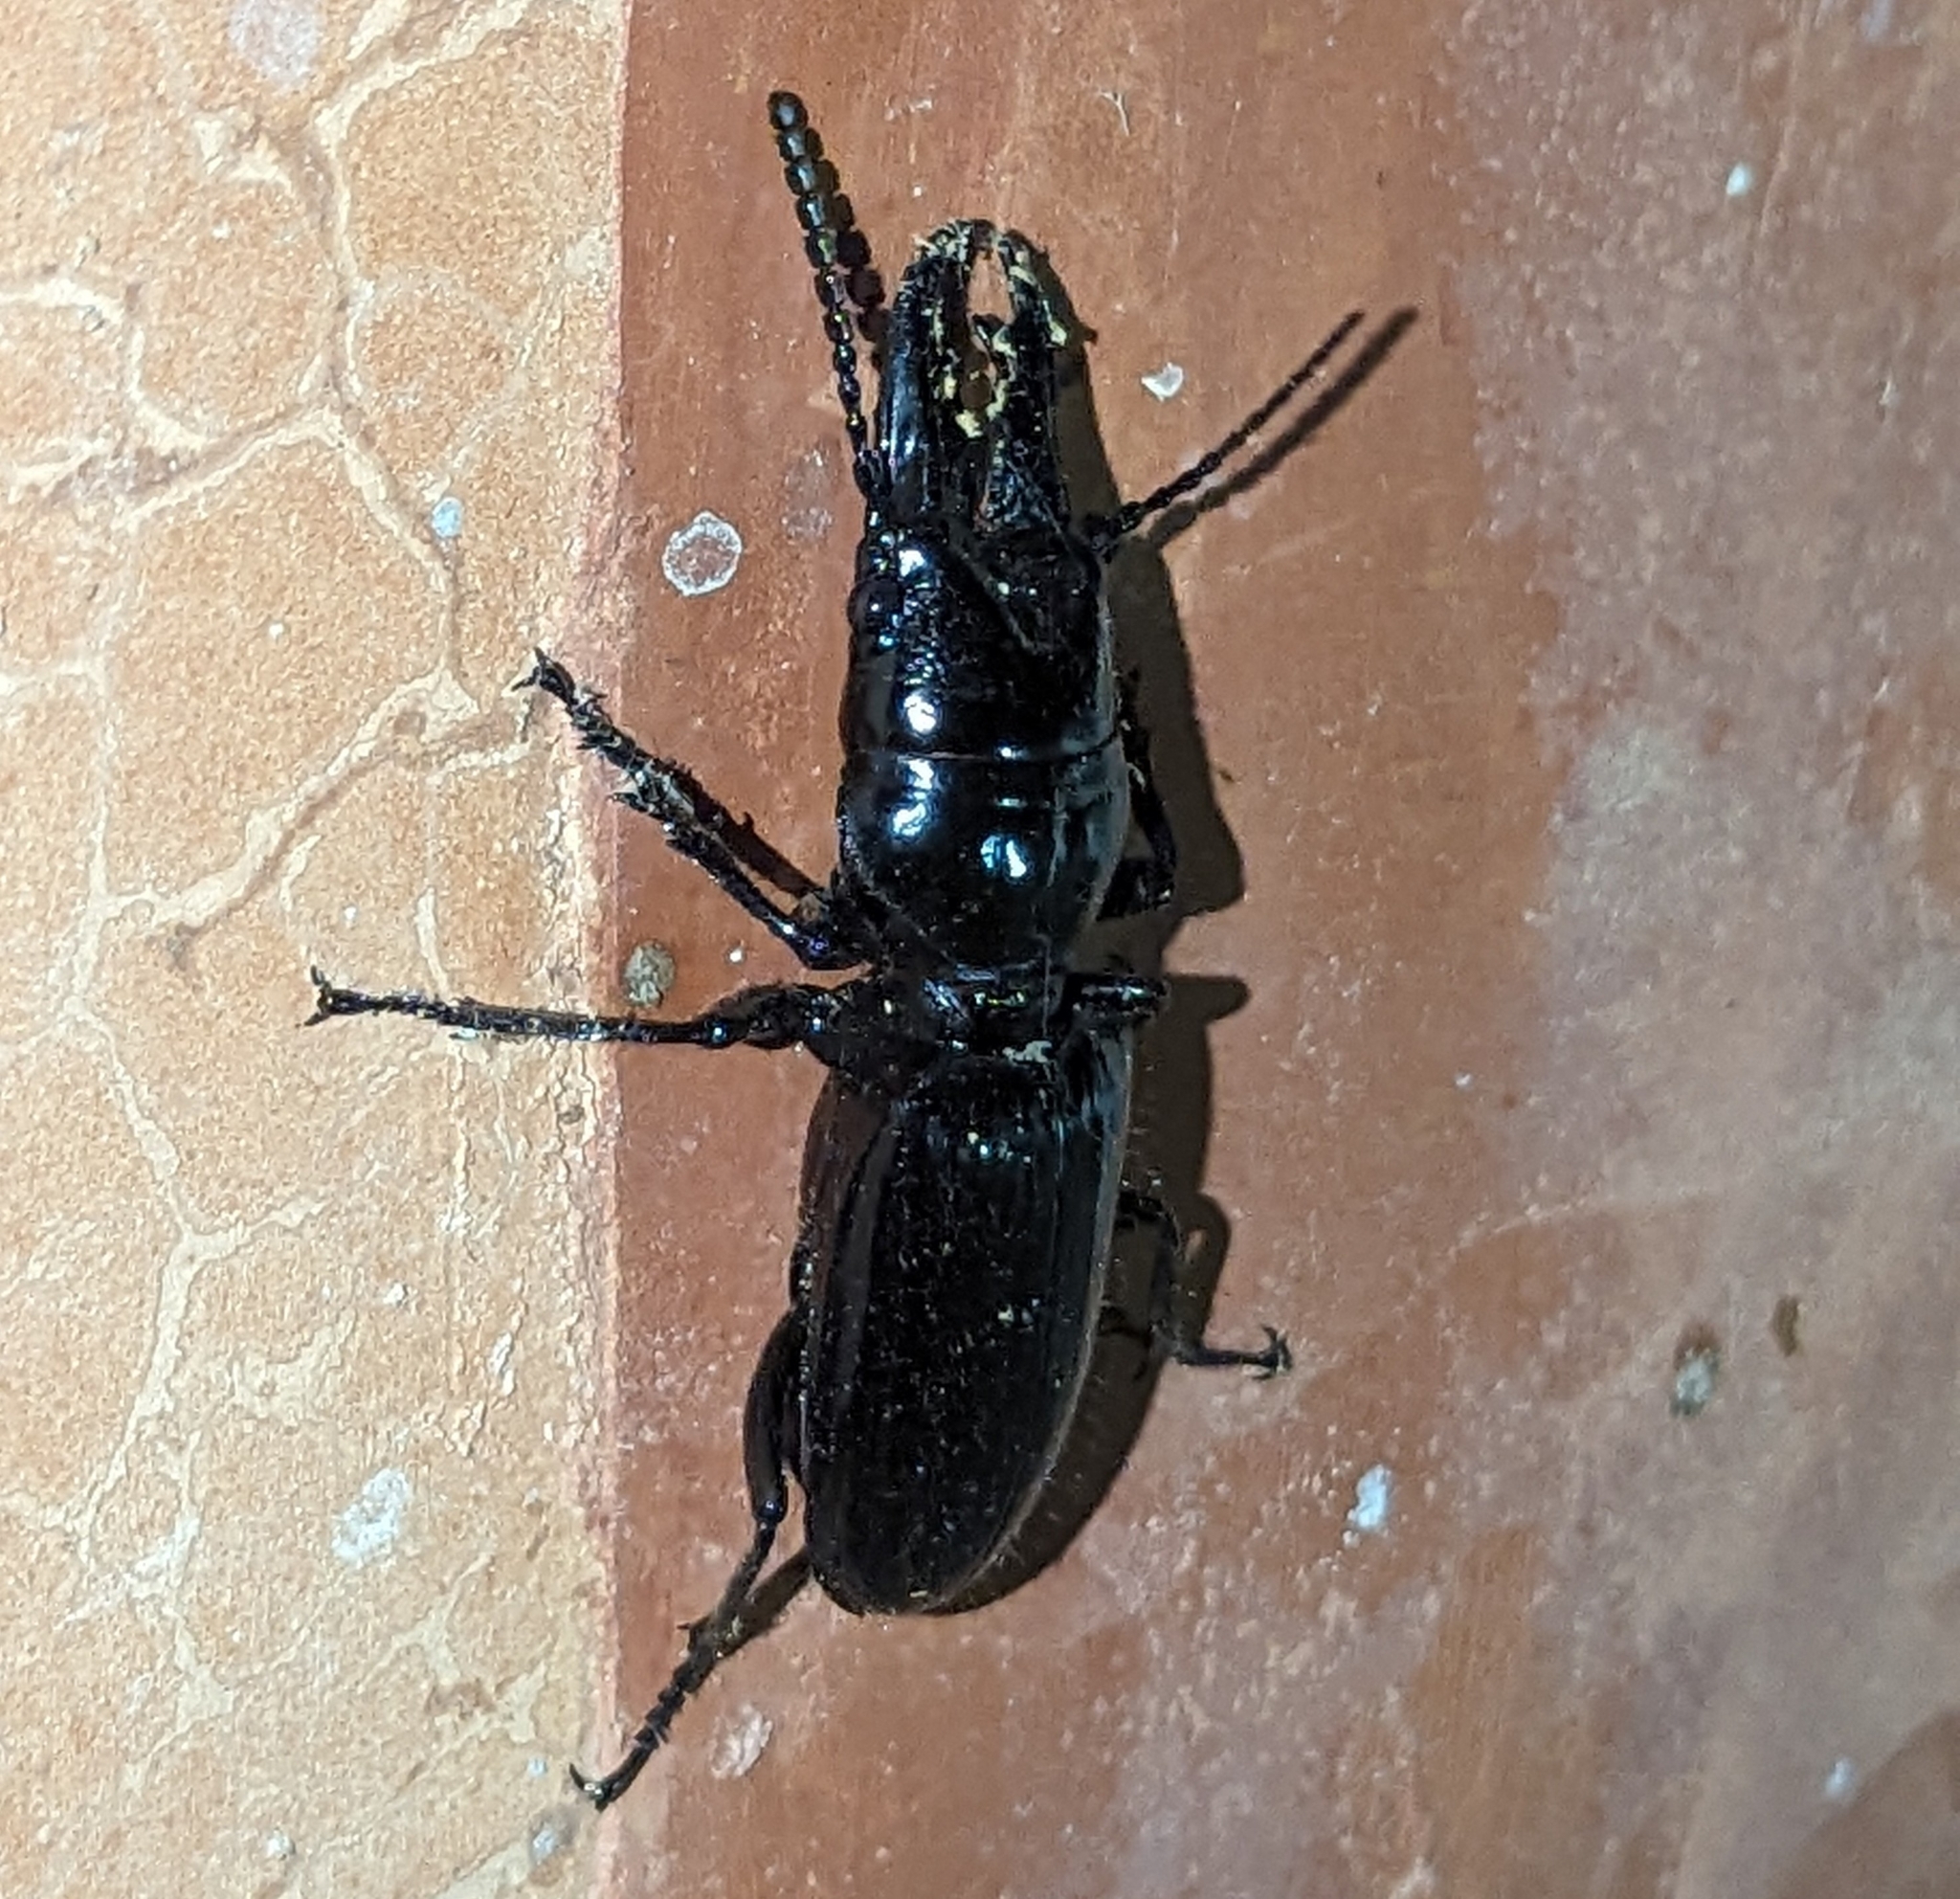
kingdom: Animalia
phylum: Arthropoda
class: Insecta
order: Coleoptera
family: Carabidae
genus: Ochyropus
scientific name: Ochyropus gigas
